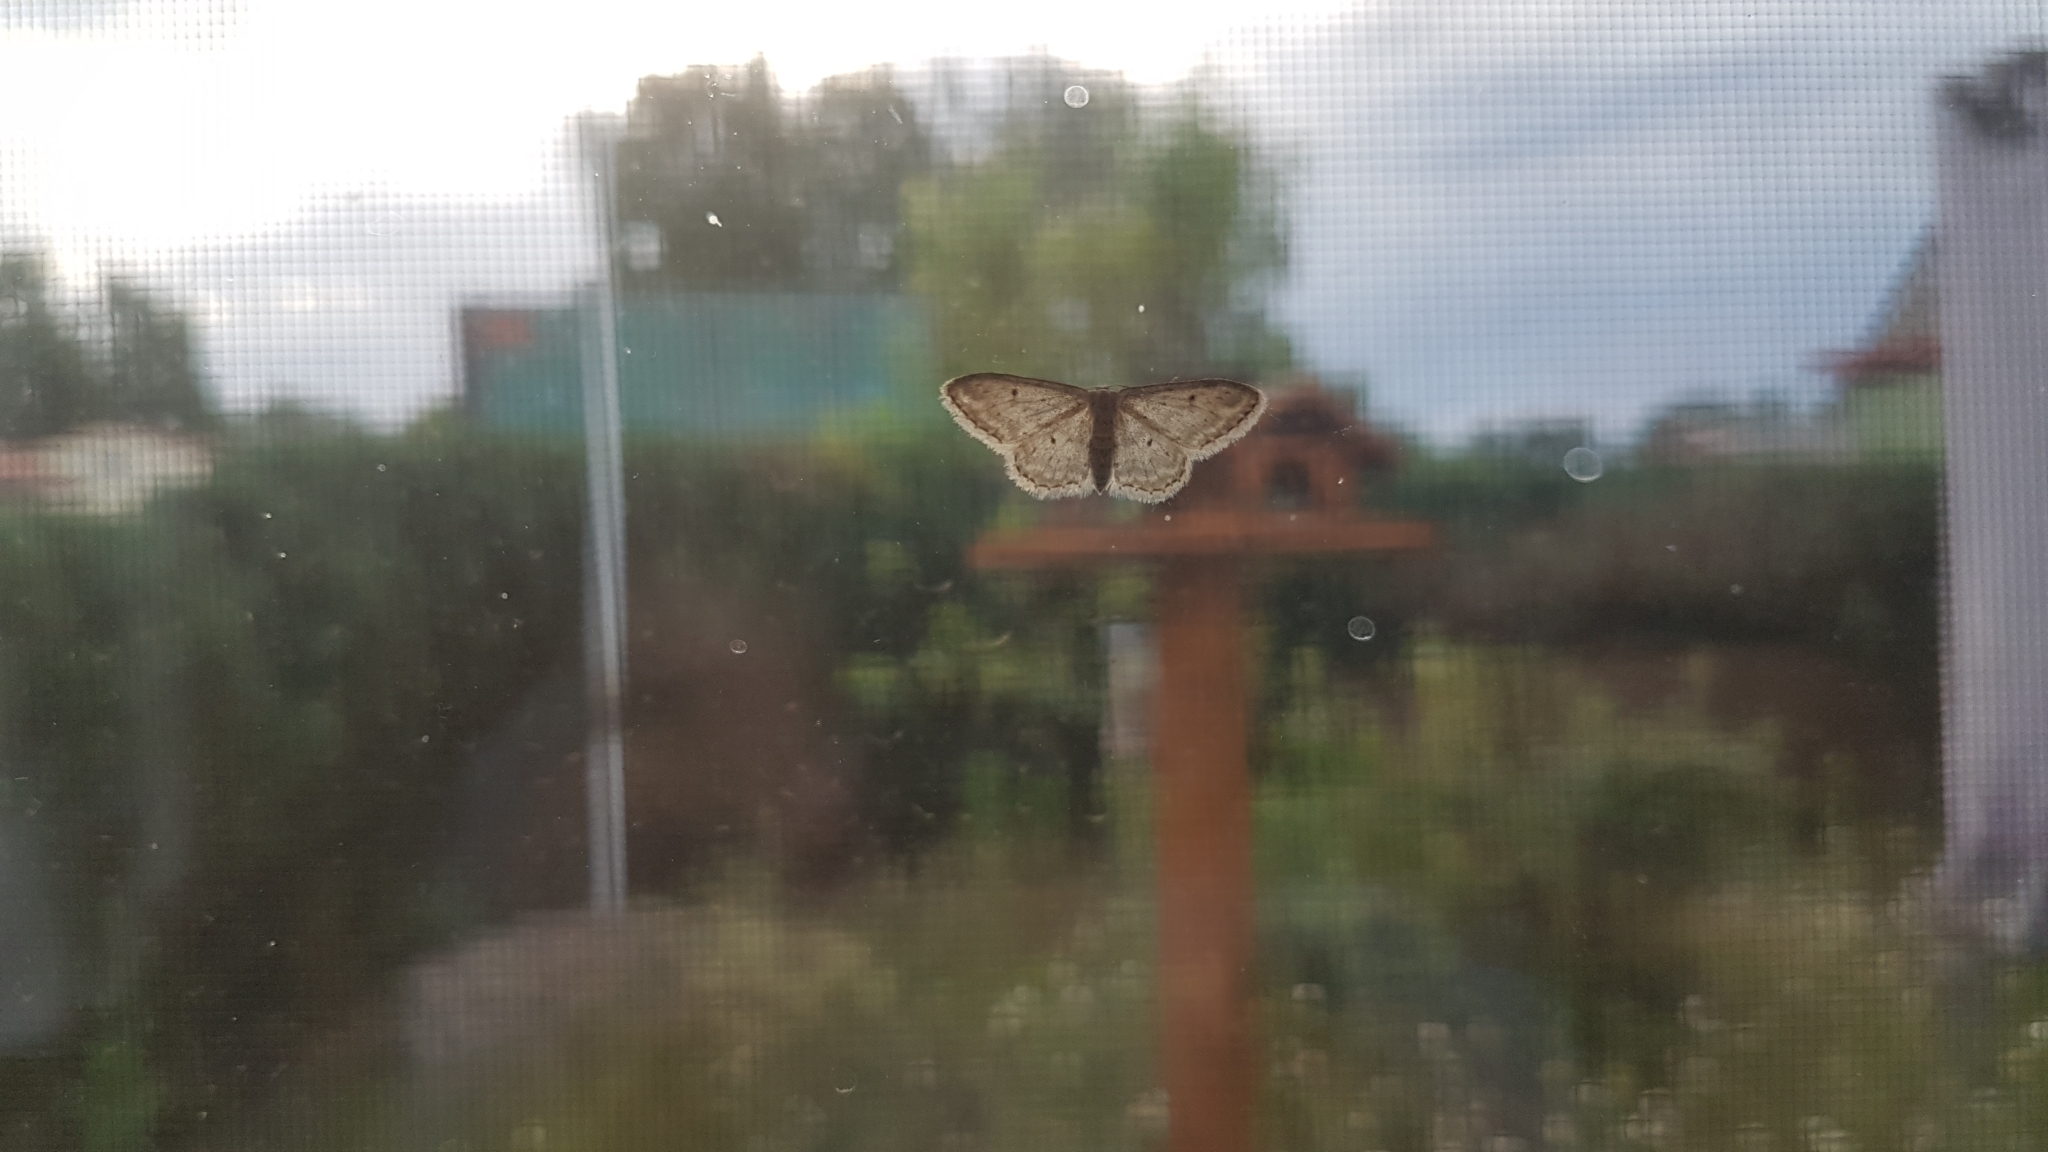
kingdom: Animalia
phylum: Arthropoda
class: Insecta
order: Lepidoptera
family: Geometridae
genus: Idaea
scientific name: Idaea seriata
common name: Small dusty wave
